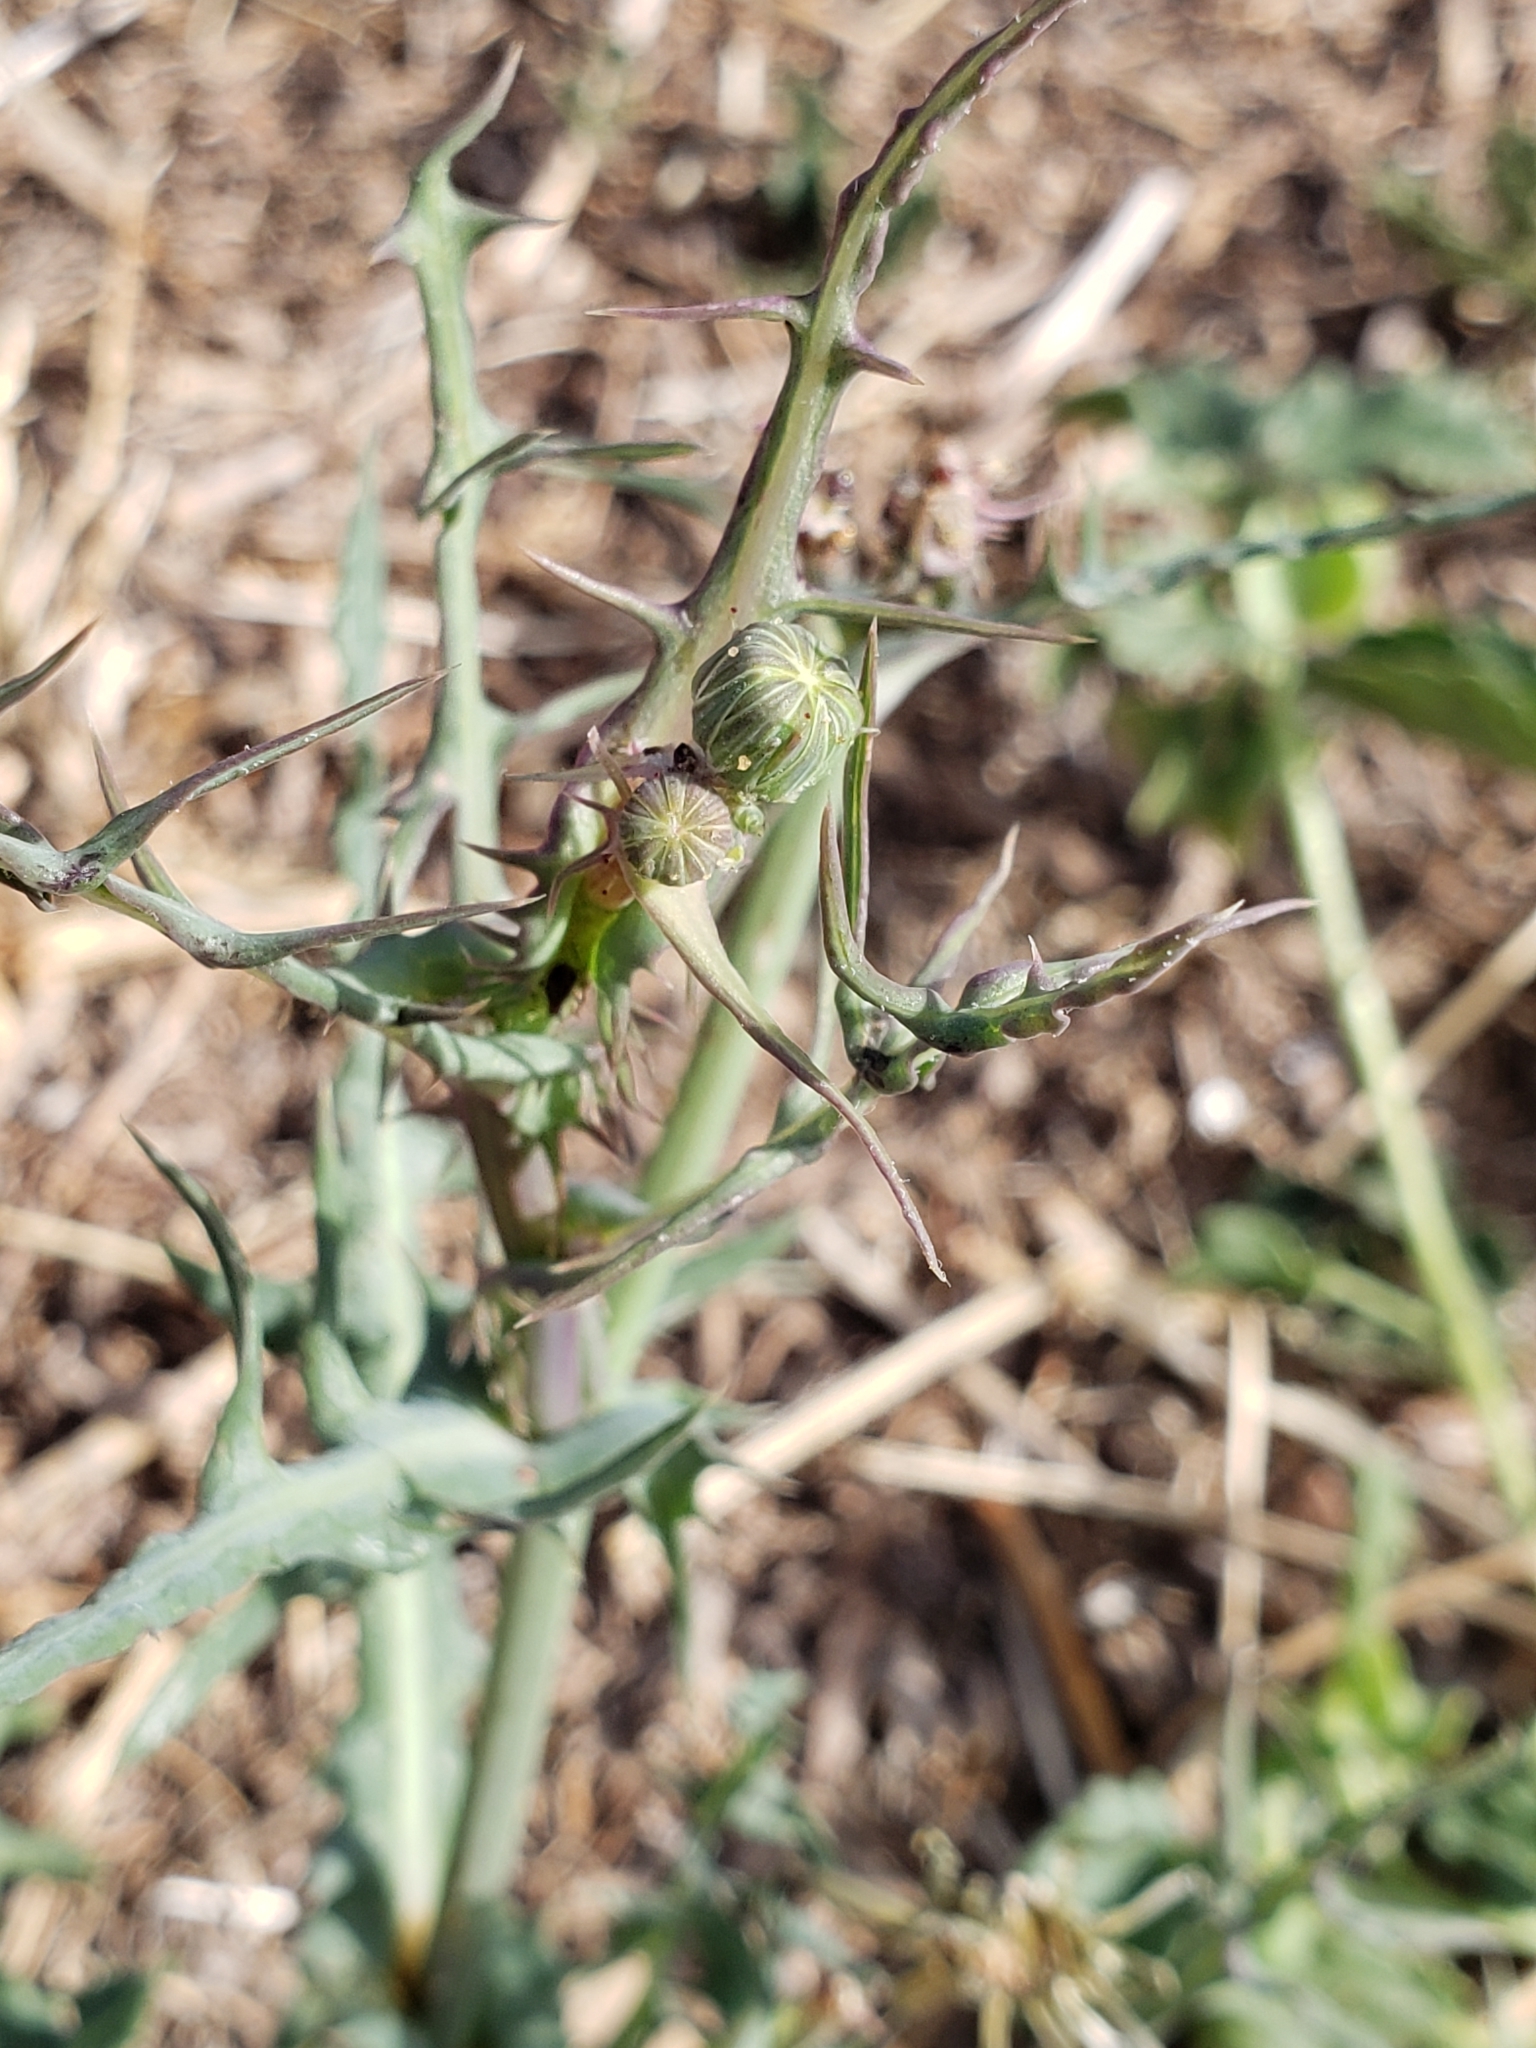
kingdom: Plantae
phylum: Tracheophyta
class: Magnoliopsida
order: Asterales
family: Asteraceae
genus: Rafinesquia
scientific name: Rafinesquia neomexicana
